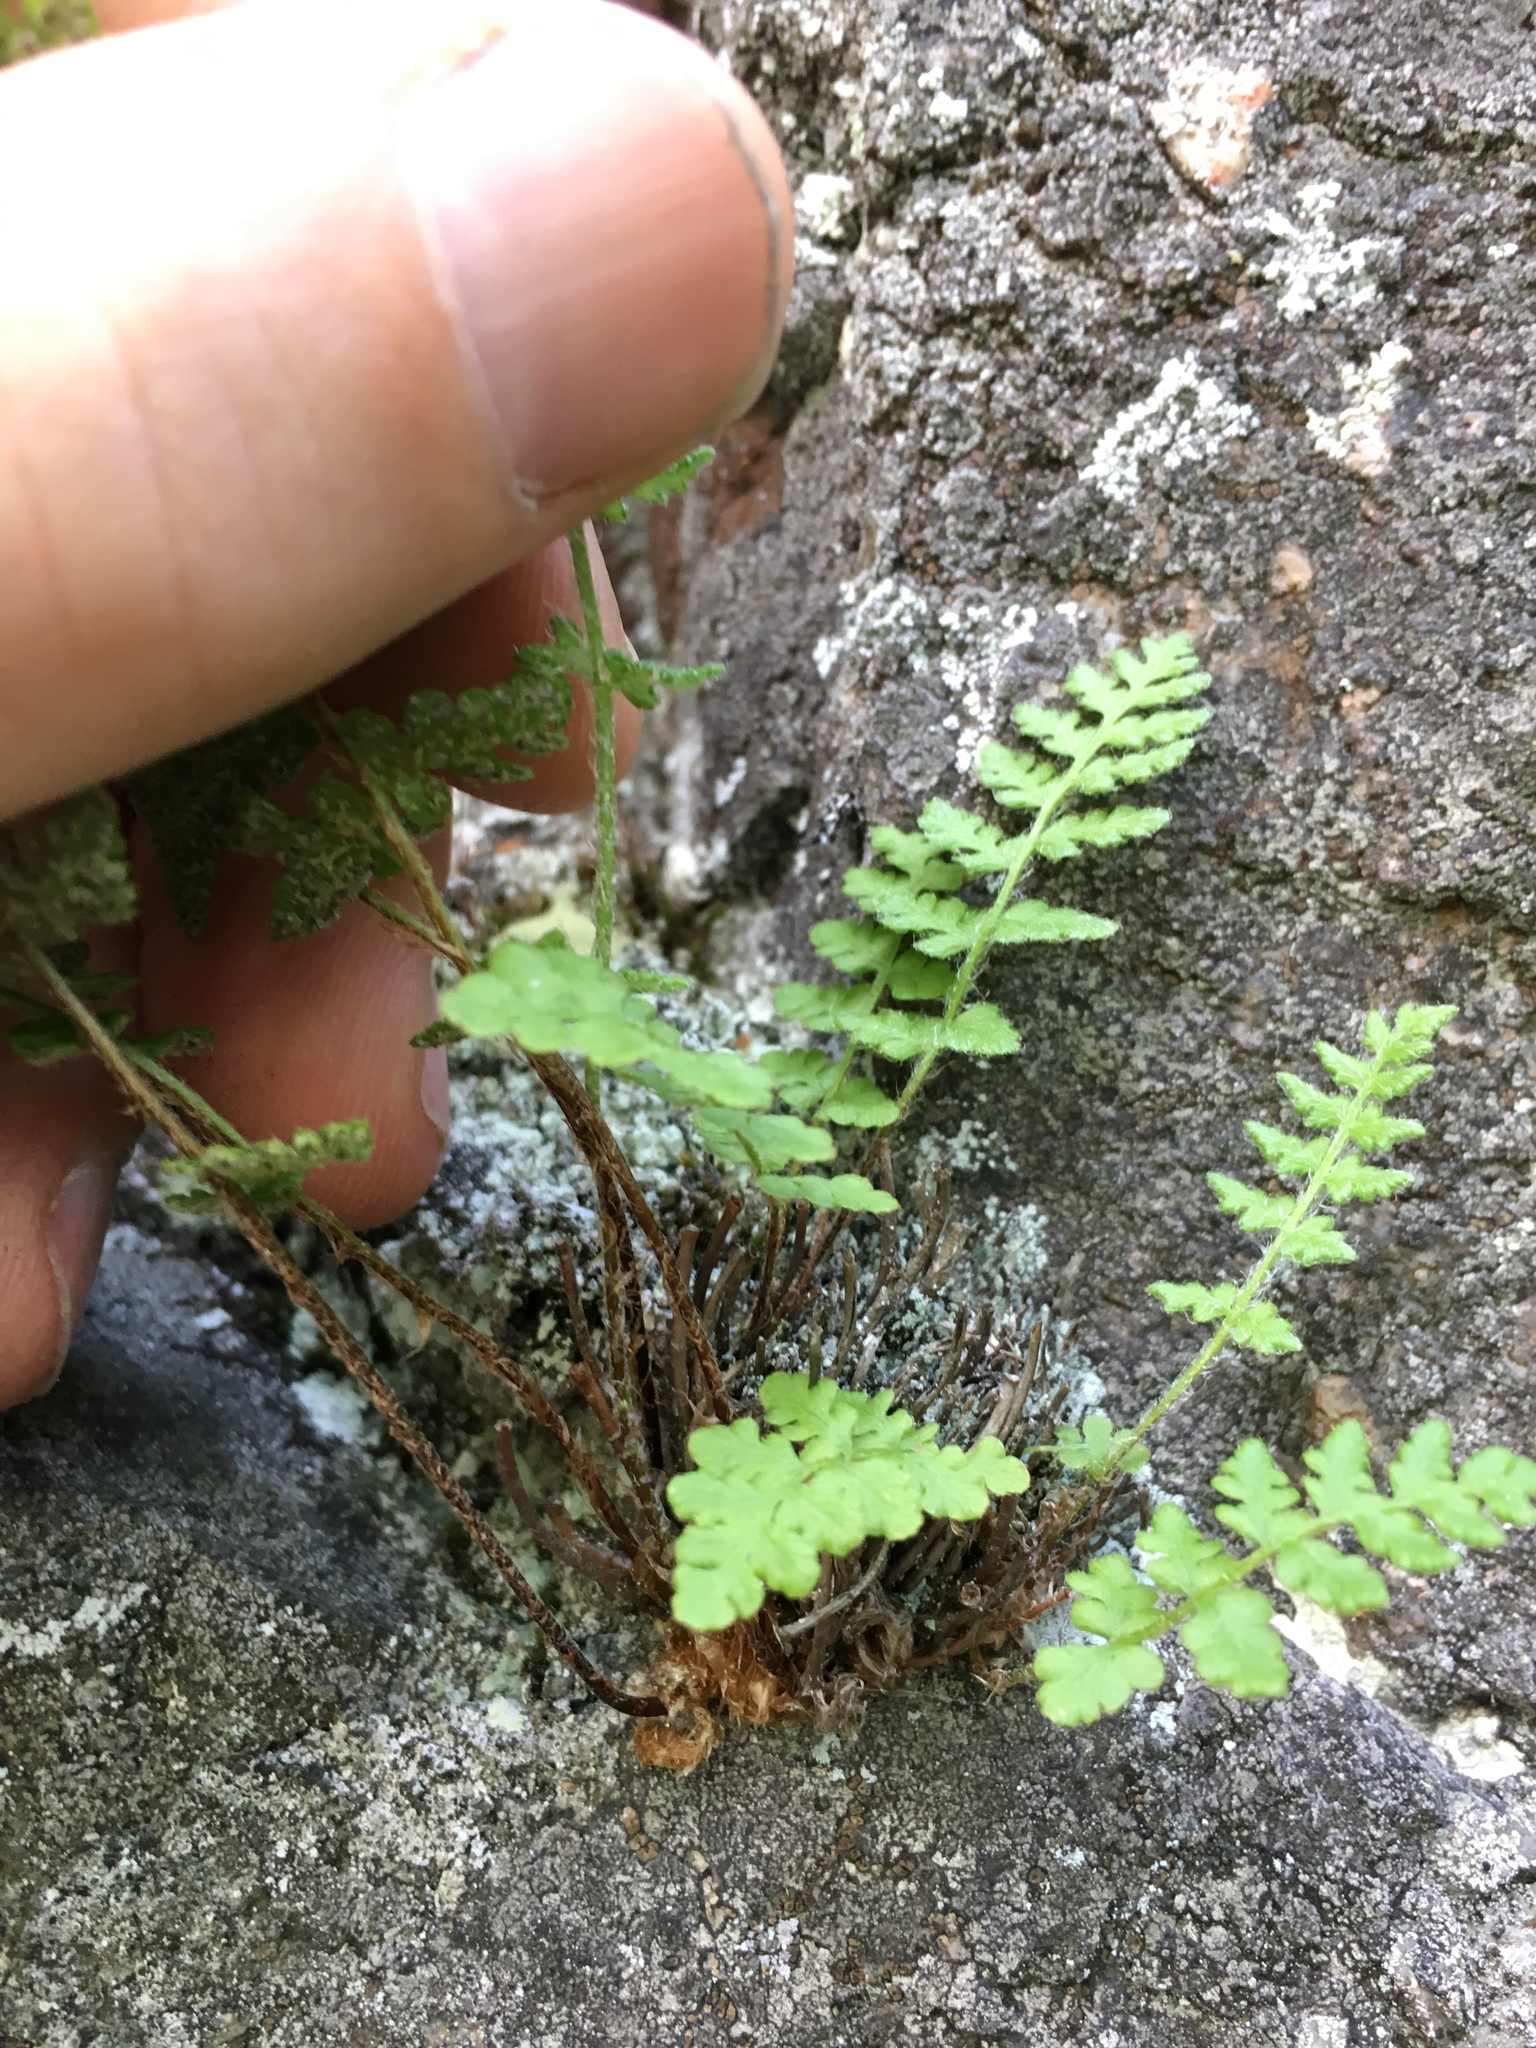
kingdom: Plantae
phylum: Tracheophyta
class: Polypodiopsida
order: Polypodiales
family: Woodsiaceae
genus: Woodsia
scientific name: Woodsia ilvensis
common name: Fragrant woodsia
